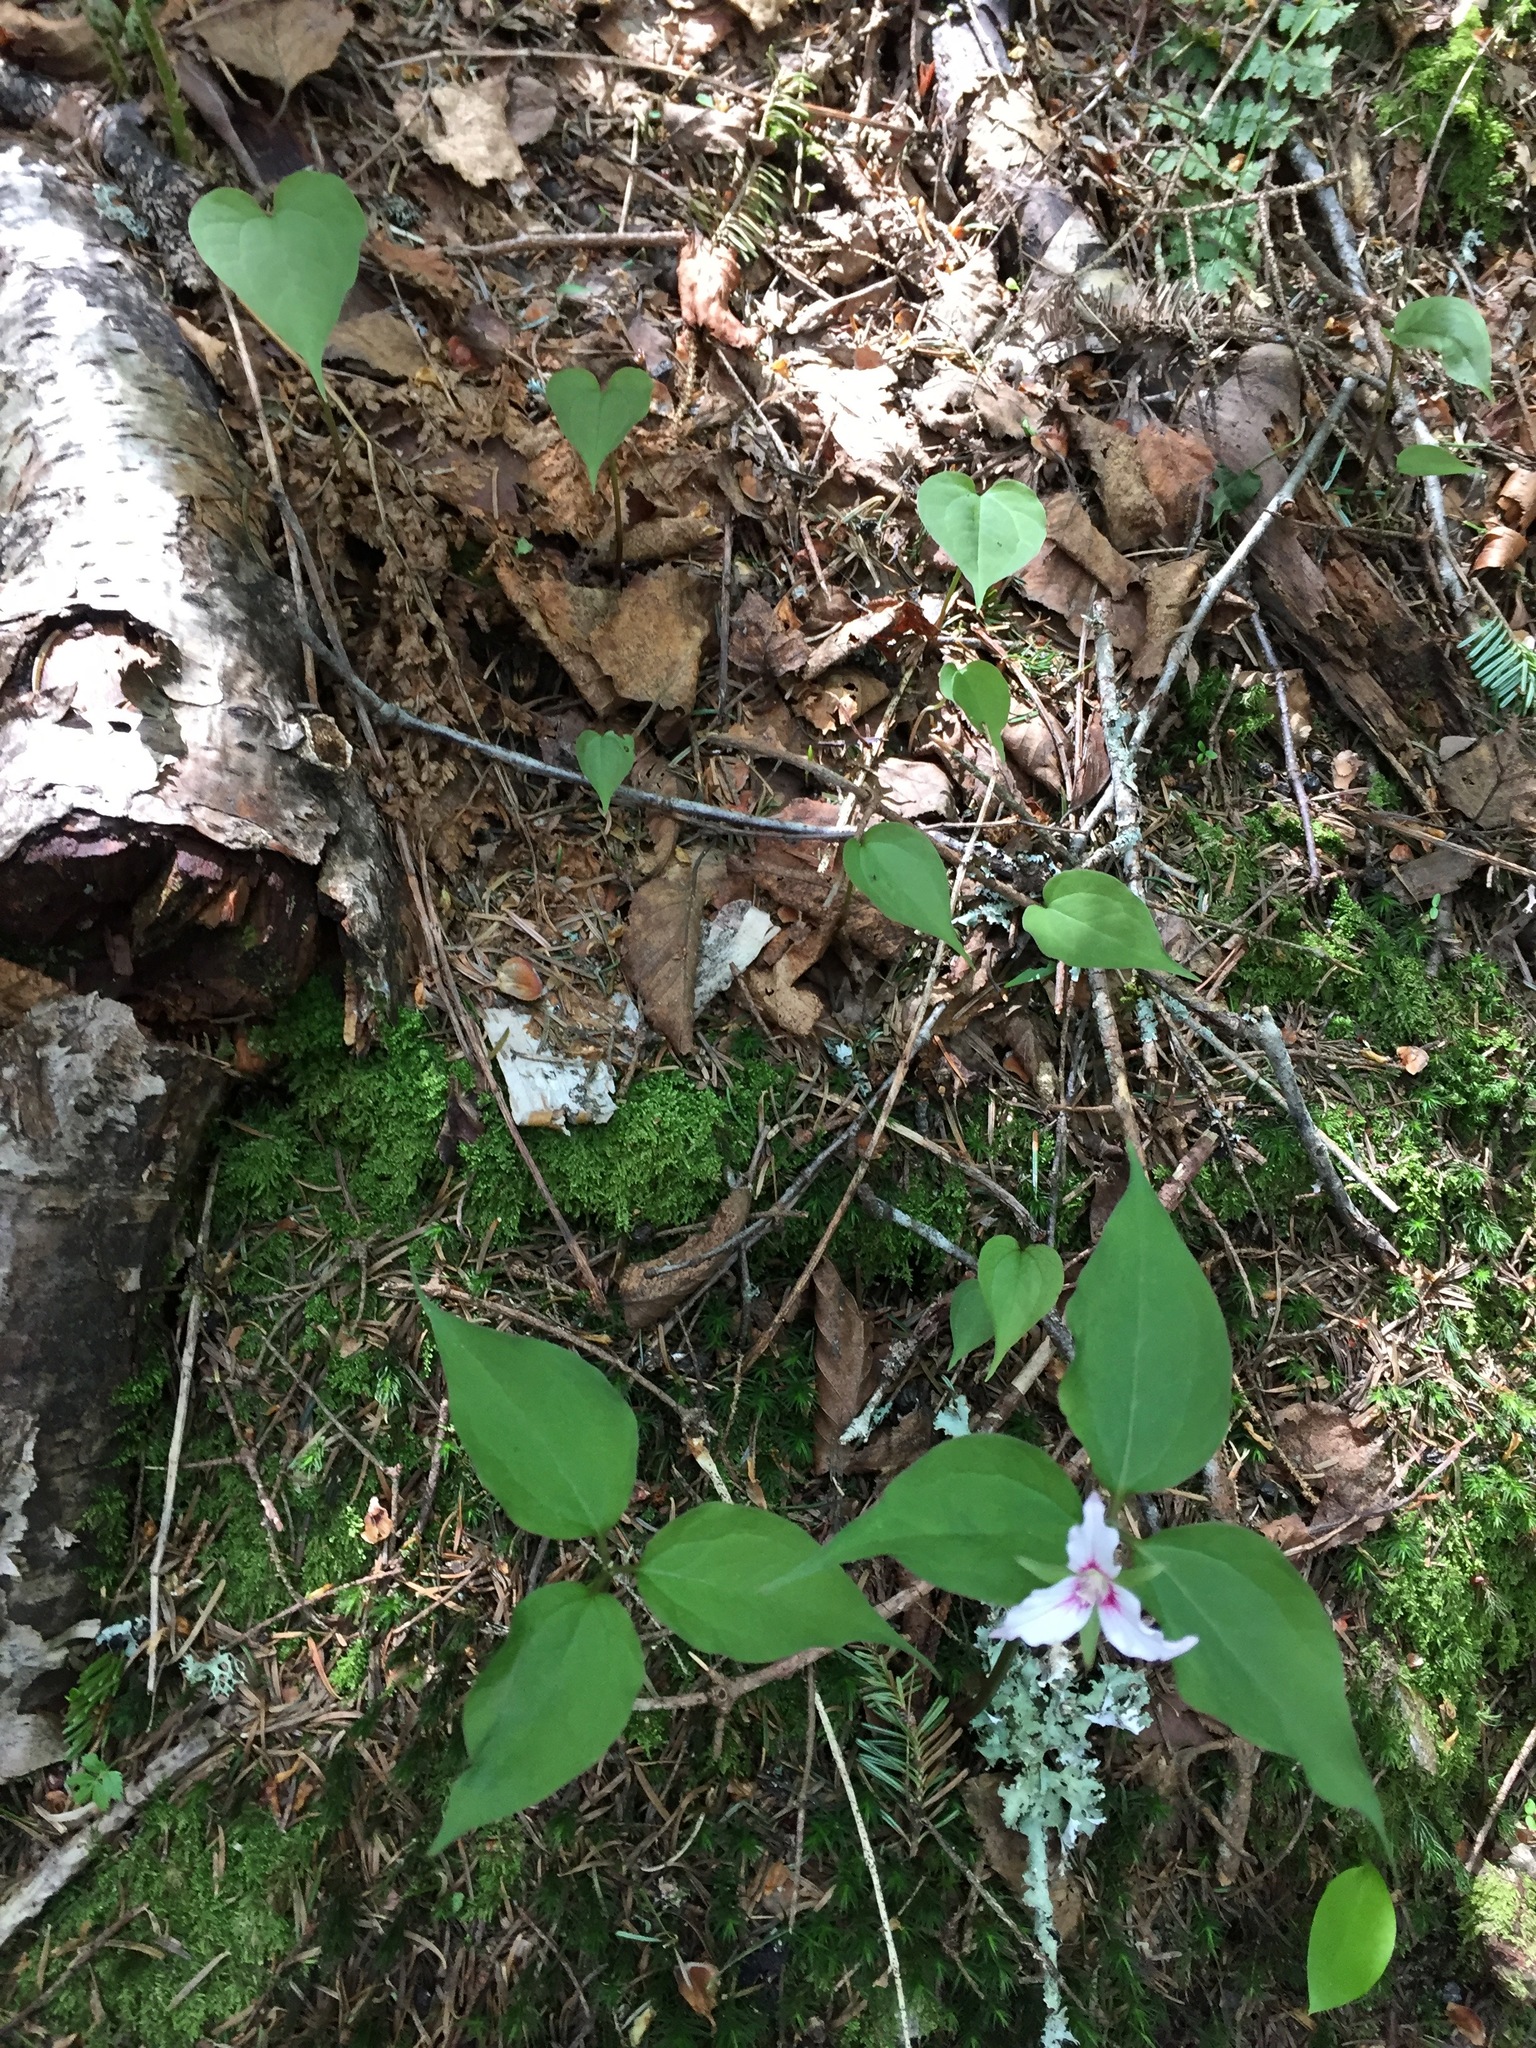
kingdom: Plantae
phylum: Tracheophyta
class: Liliopsida
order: Liliales
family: Melanthiaceae
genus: Trillium
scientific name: Trillium undulatum
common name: Paint trillium
